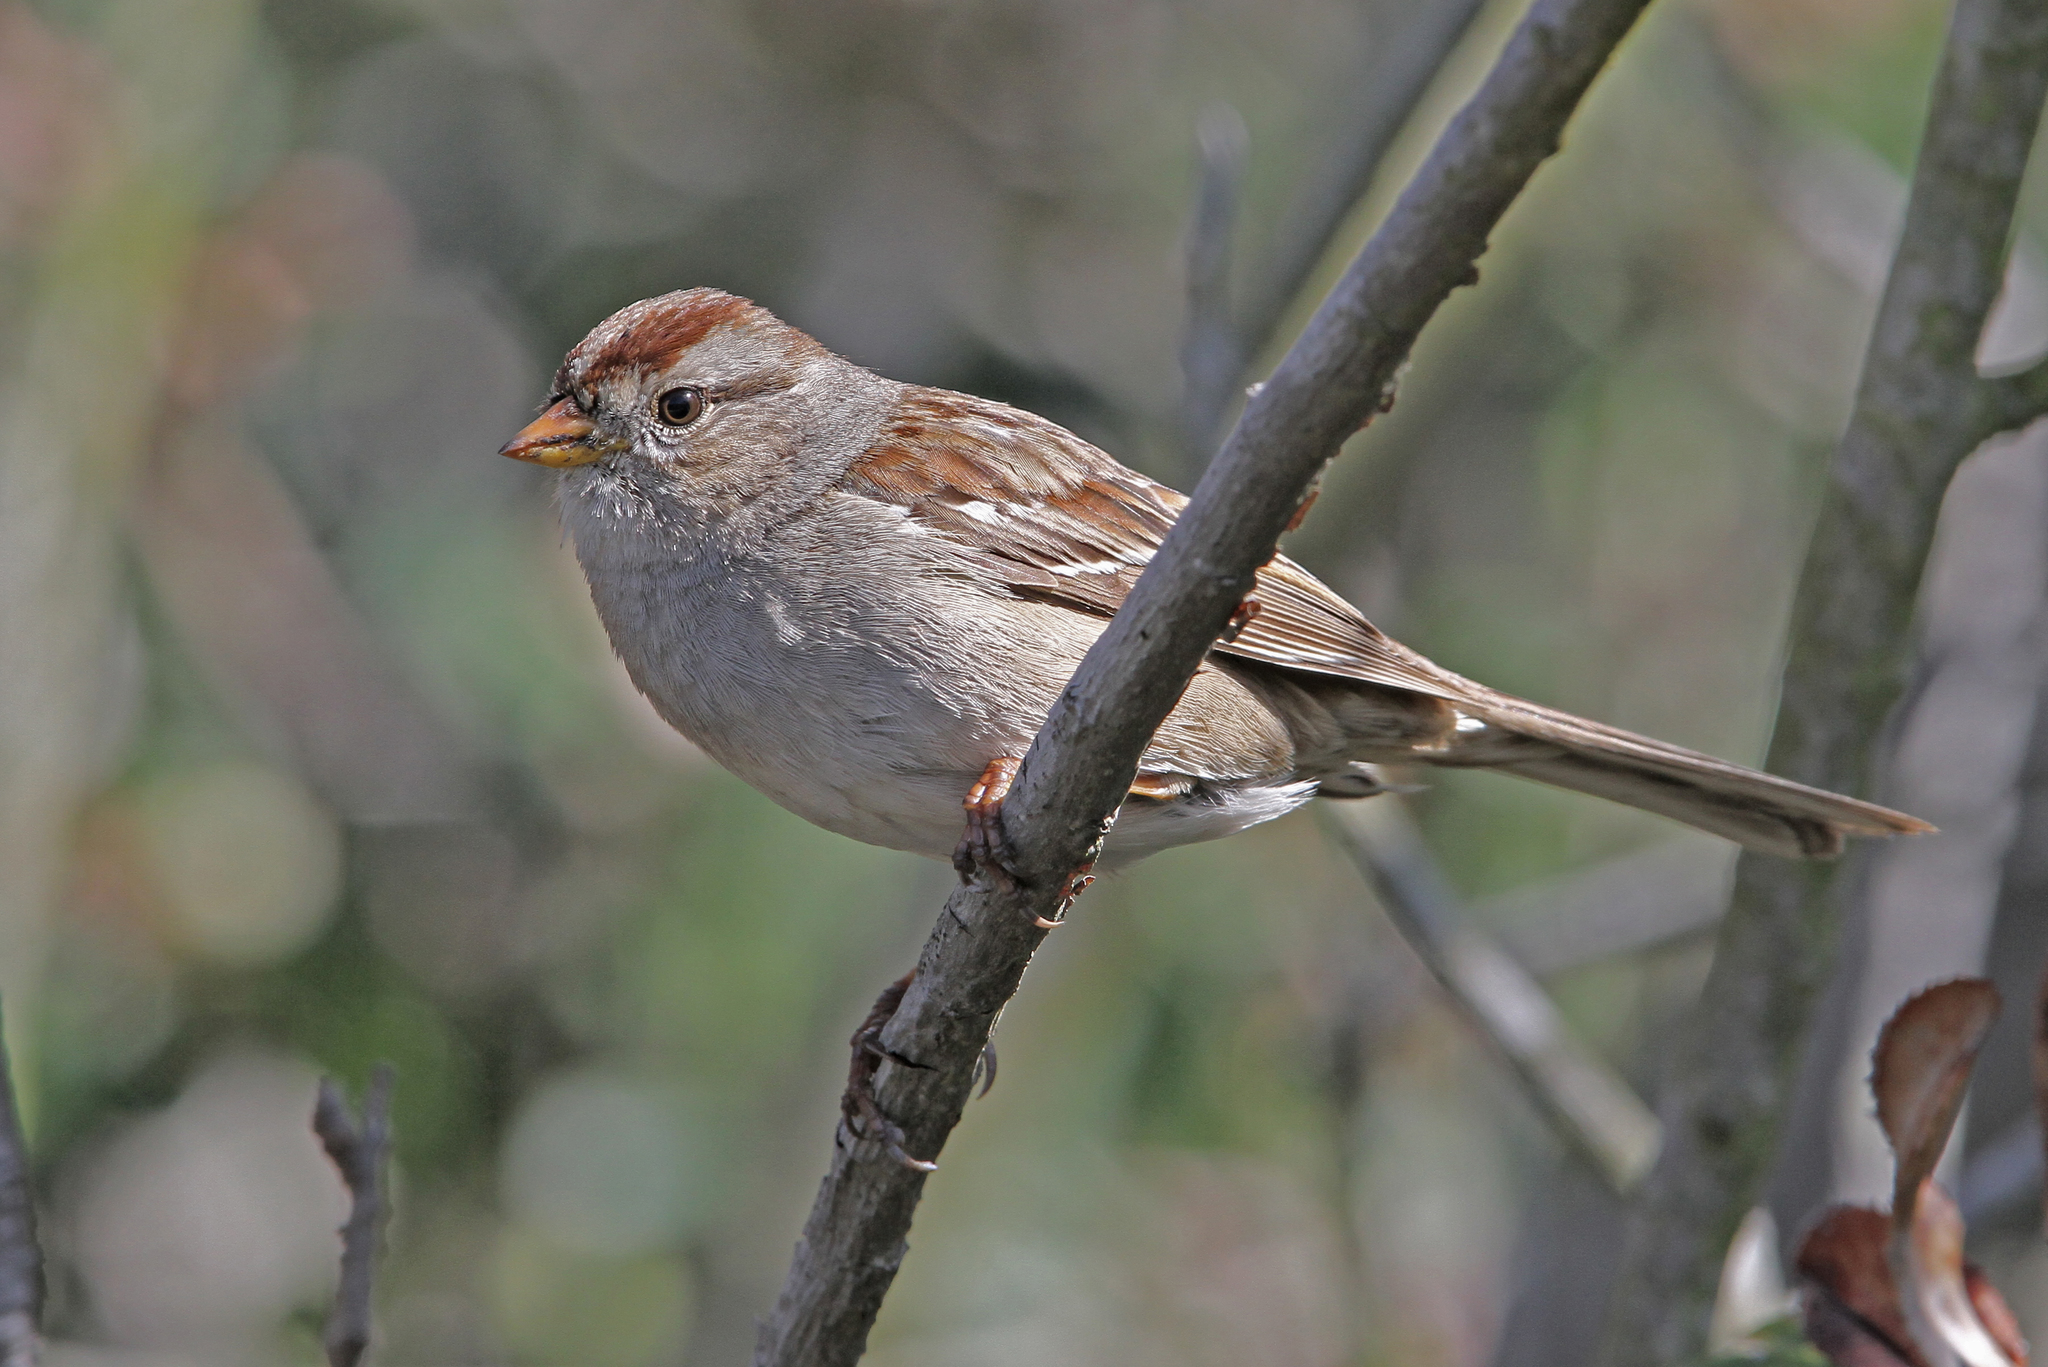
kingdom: Animalia
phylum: Chordata
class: Aves
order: Passeriformes
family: Passerellidae
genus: Zonotrichia
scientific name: Zonotrichia leucophrys
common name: White-crowned sparrow
